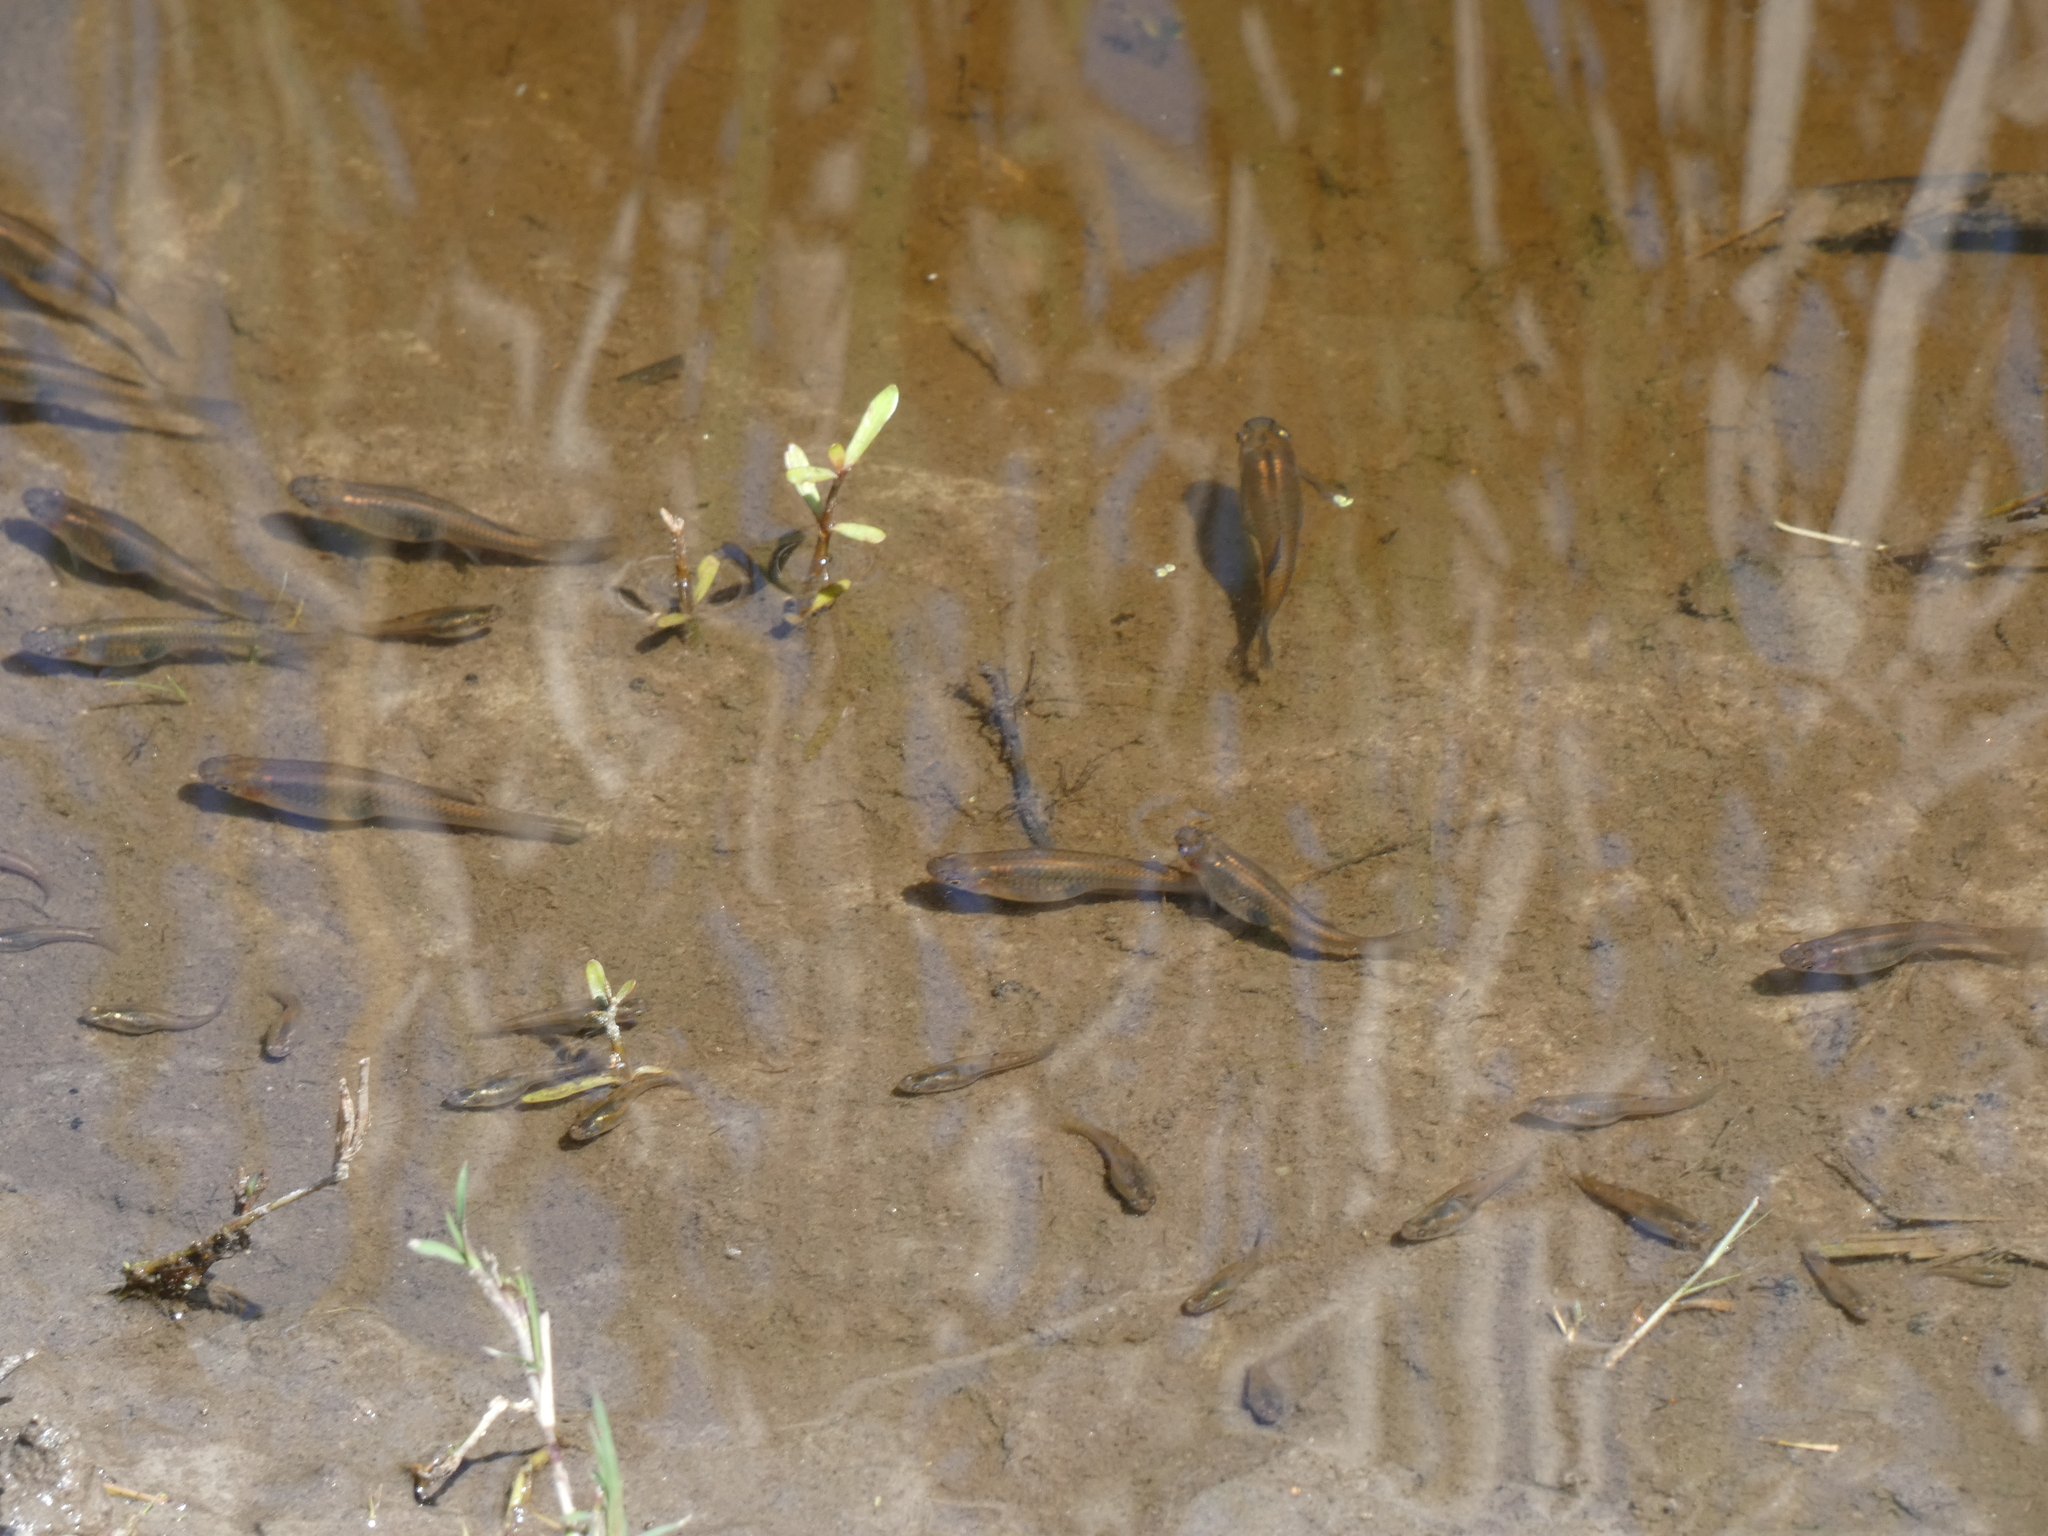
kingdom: Animalia
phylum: Chordata
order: Cyprinodontiformes
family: Poeciliidae
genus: Gambusia
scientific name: Gambusia holbrooki
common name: Eastern mosquitofish
